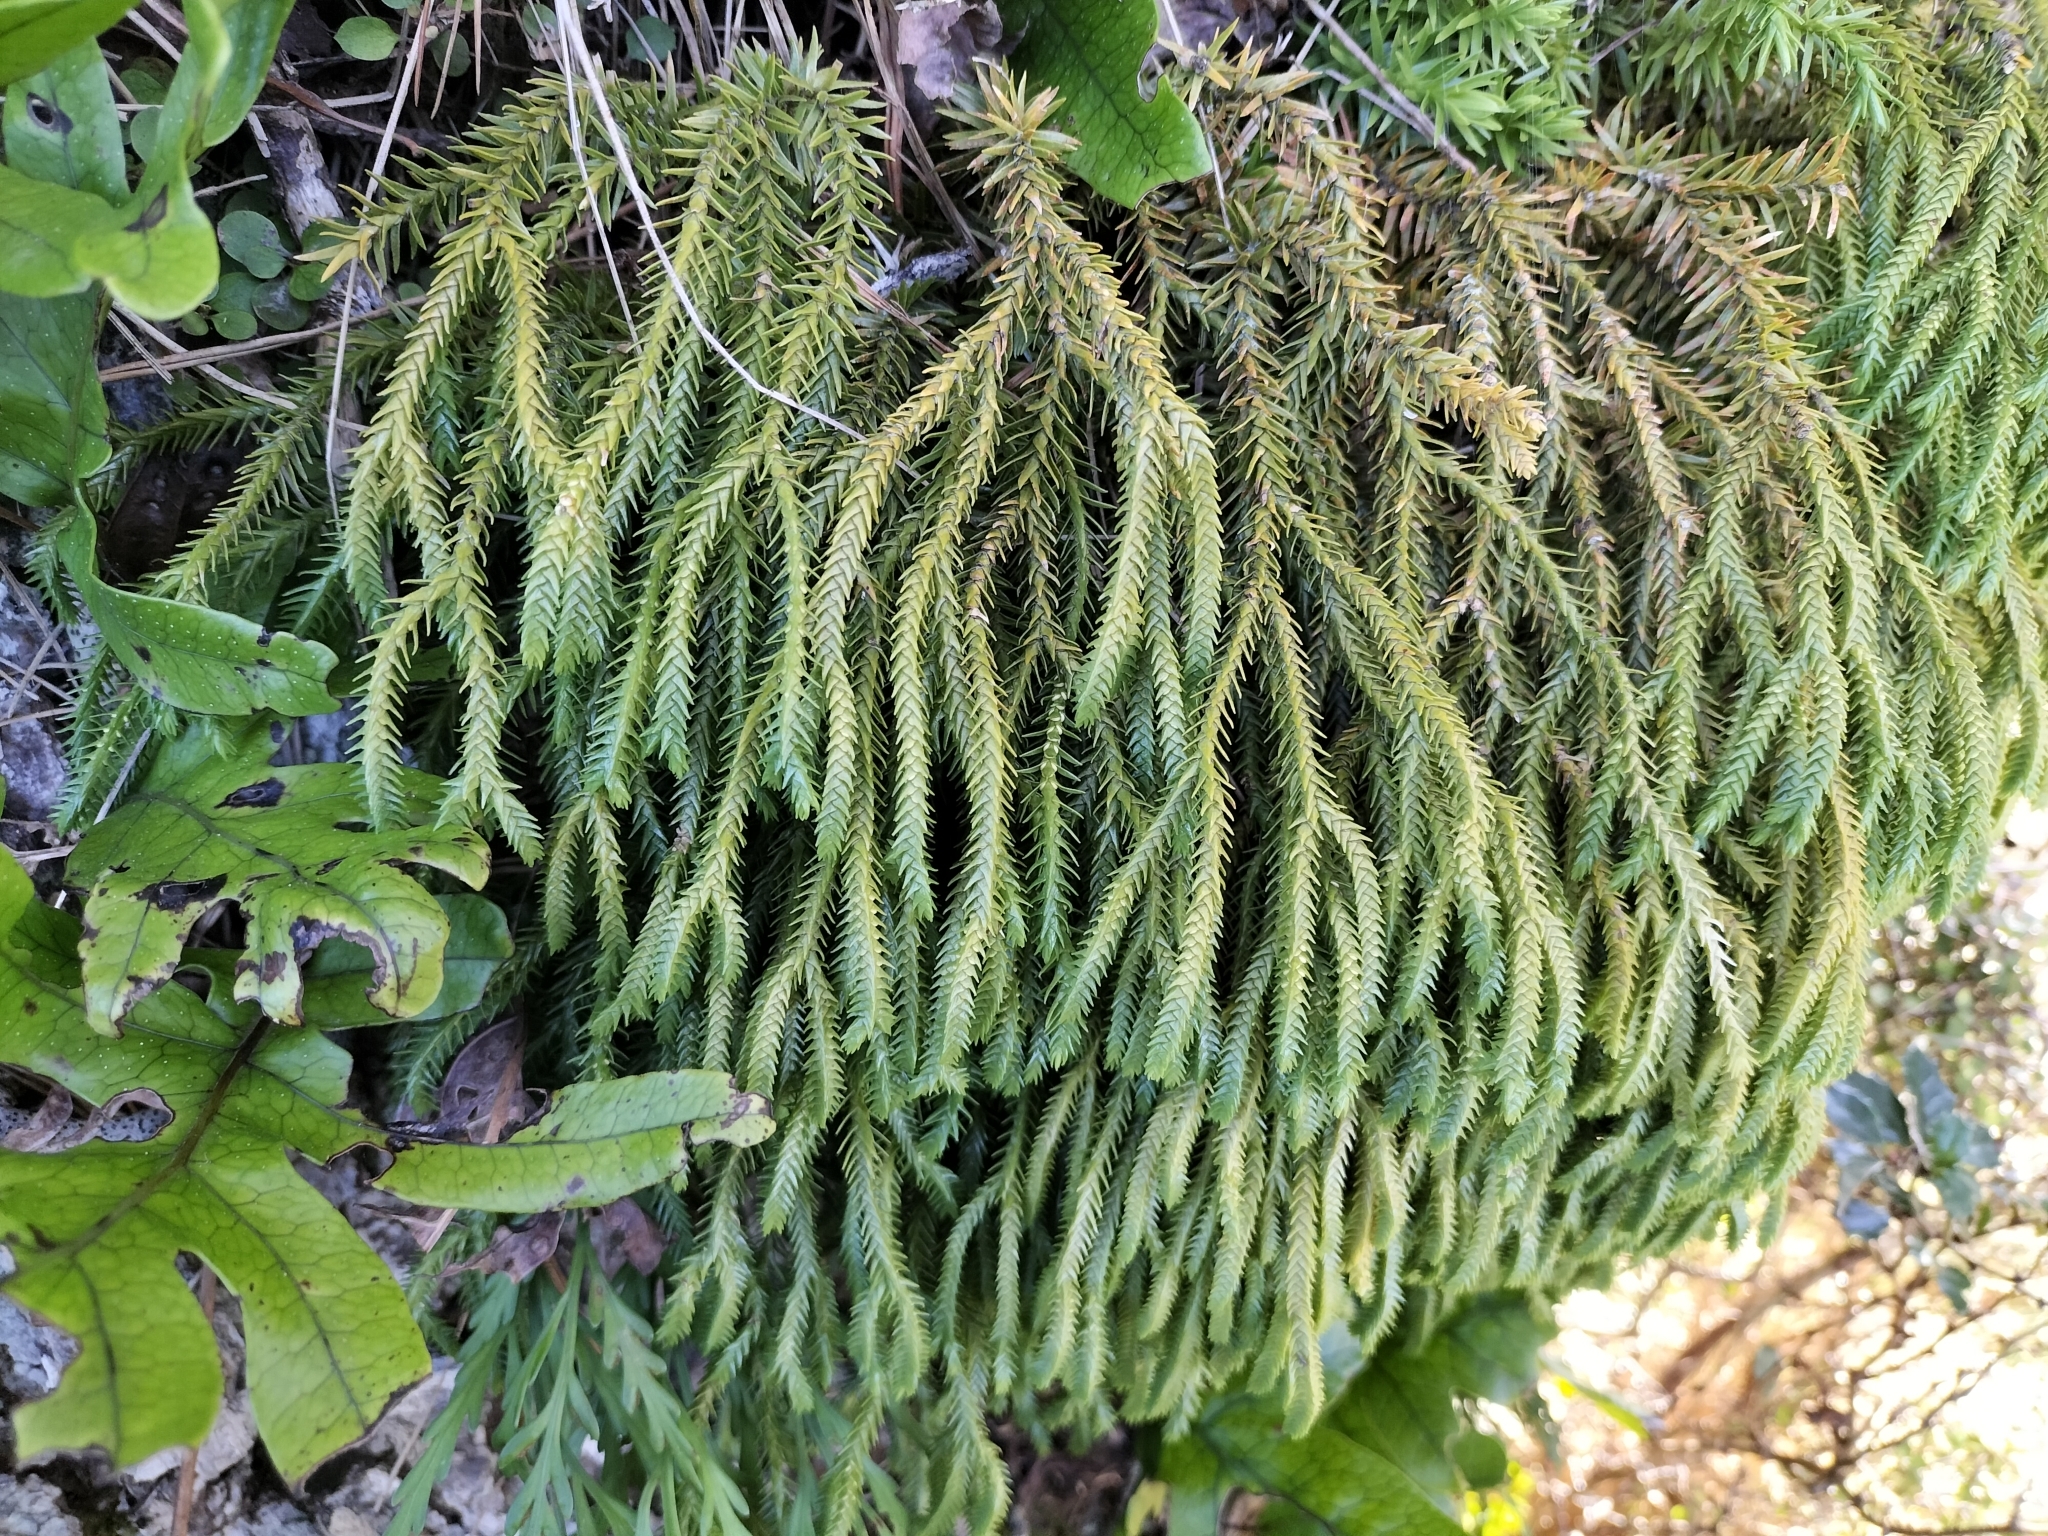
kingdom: Plantae
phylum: Tracheophyta
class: Lycopodiopsida
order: Lycopodiales
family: Lycopodiaceae
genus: Phlegmariurus
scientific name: Phlegmariurus varius
